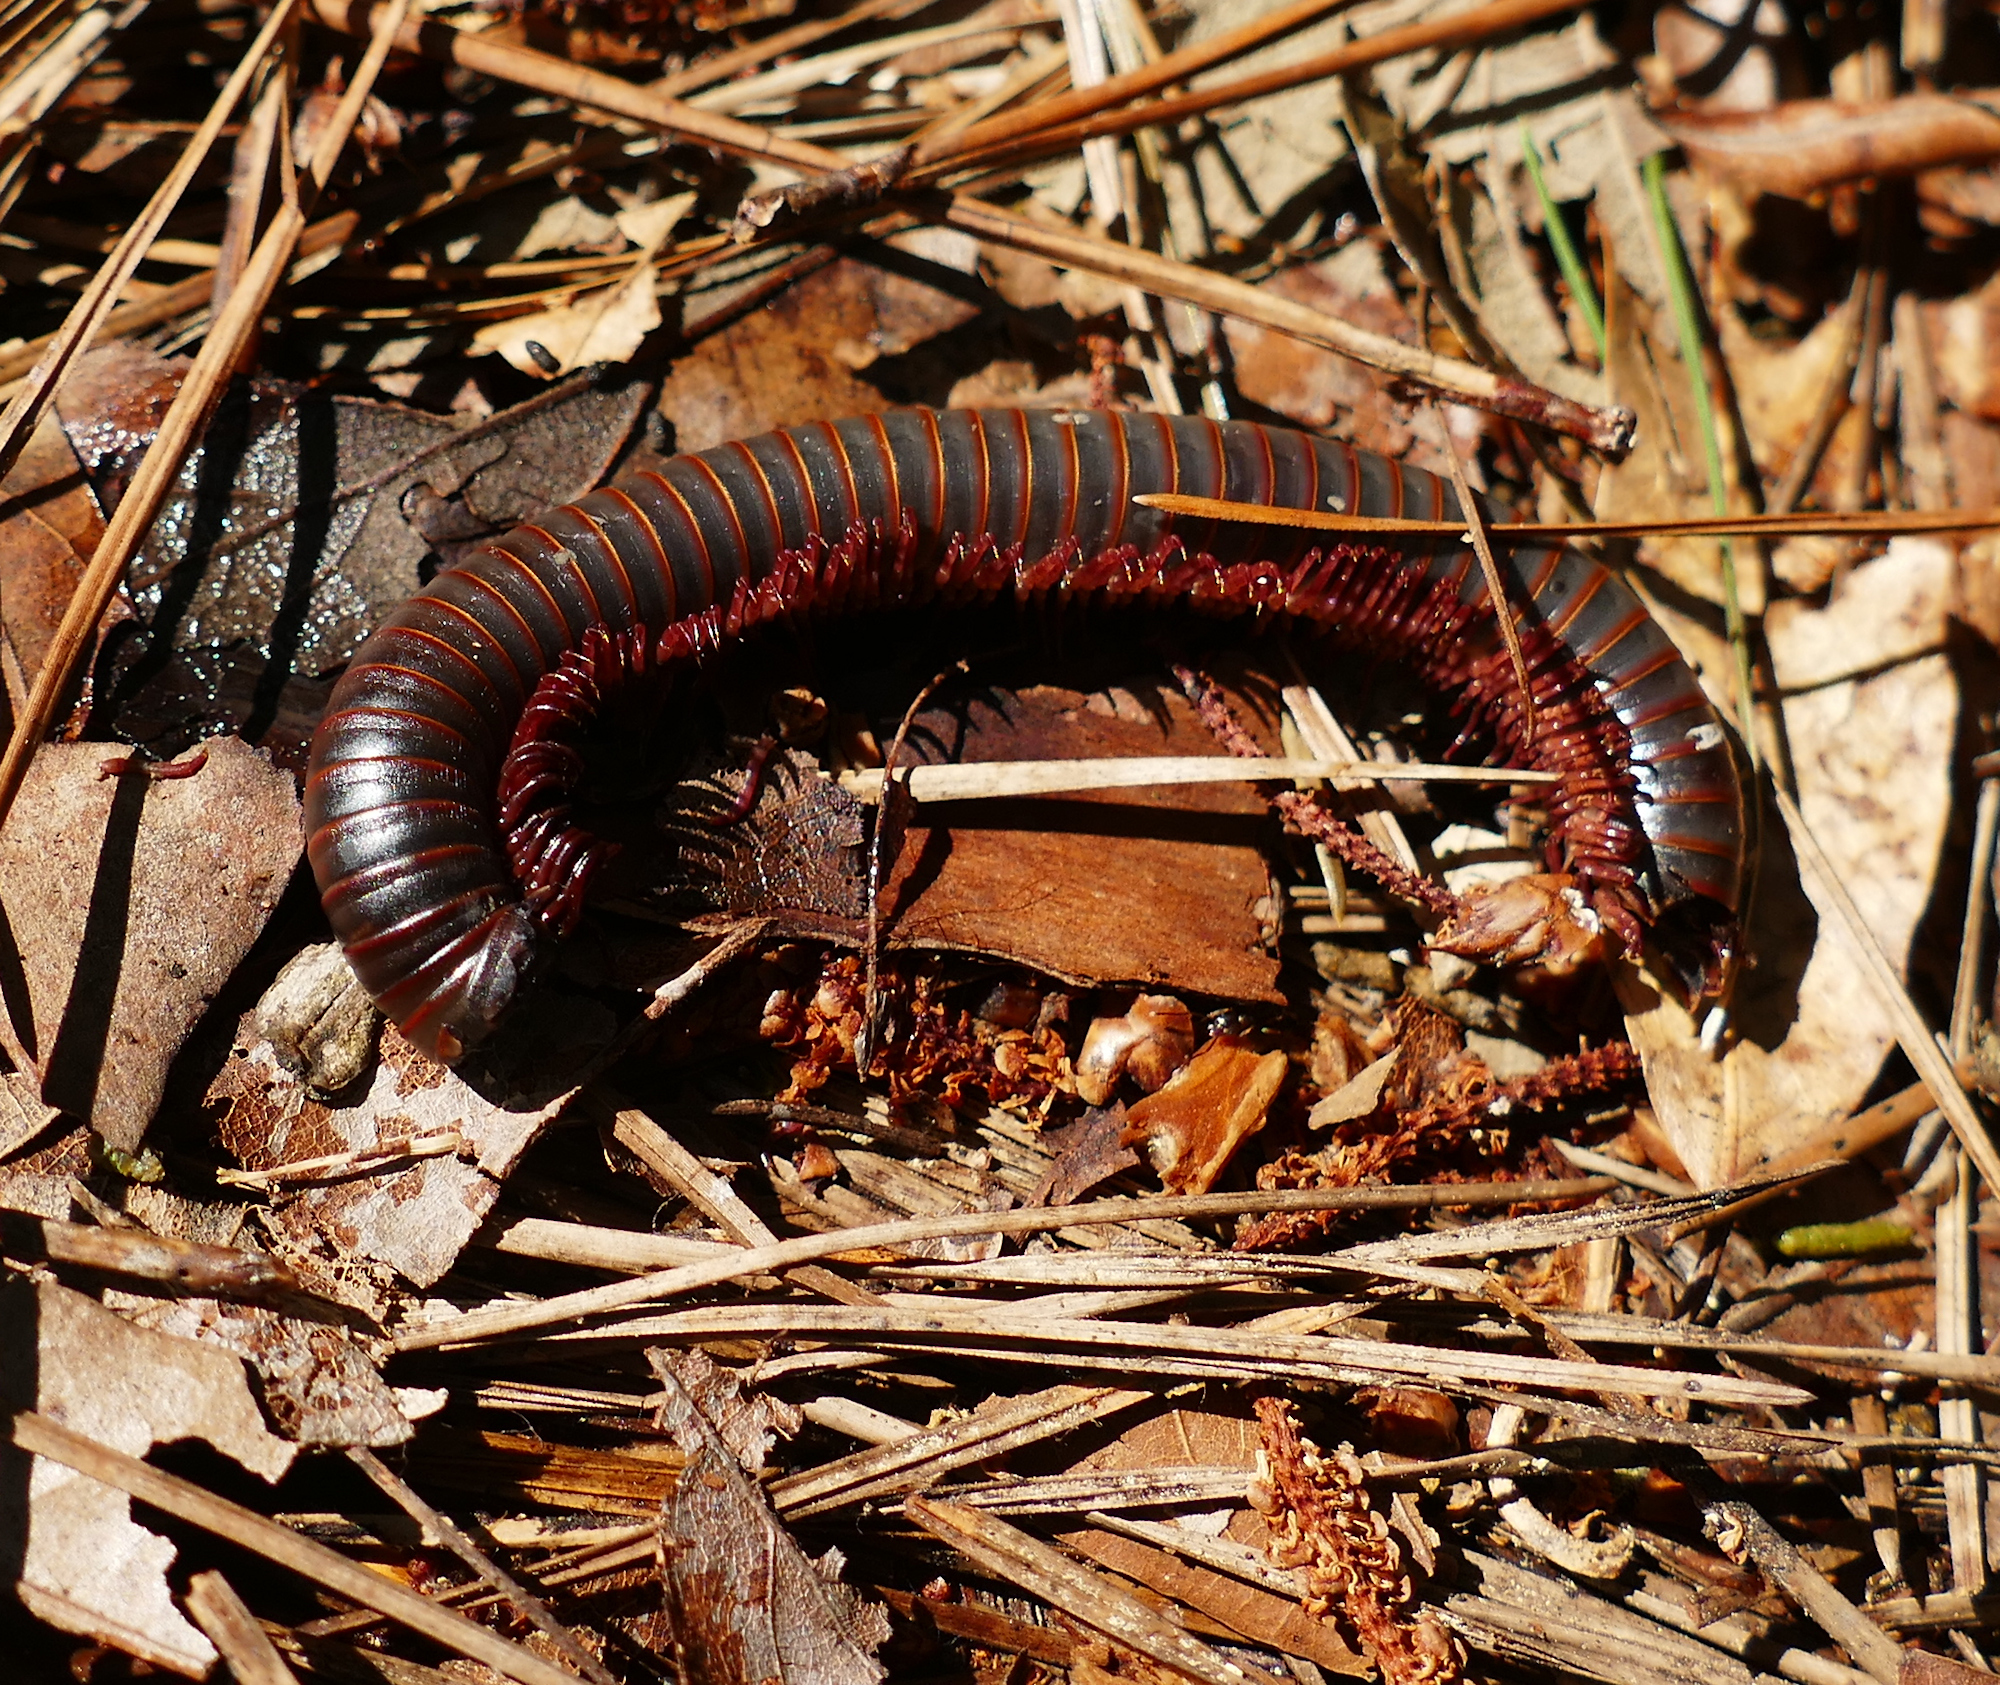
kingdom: Animalia
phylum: Arthropoda
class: Diplopoda
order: Spirobolida
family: Spirobolidae
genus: Narceus
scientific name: Narceus
